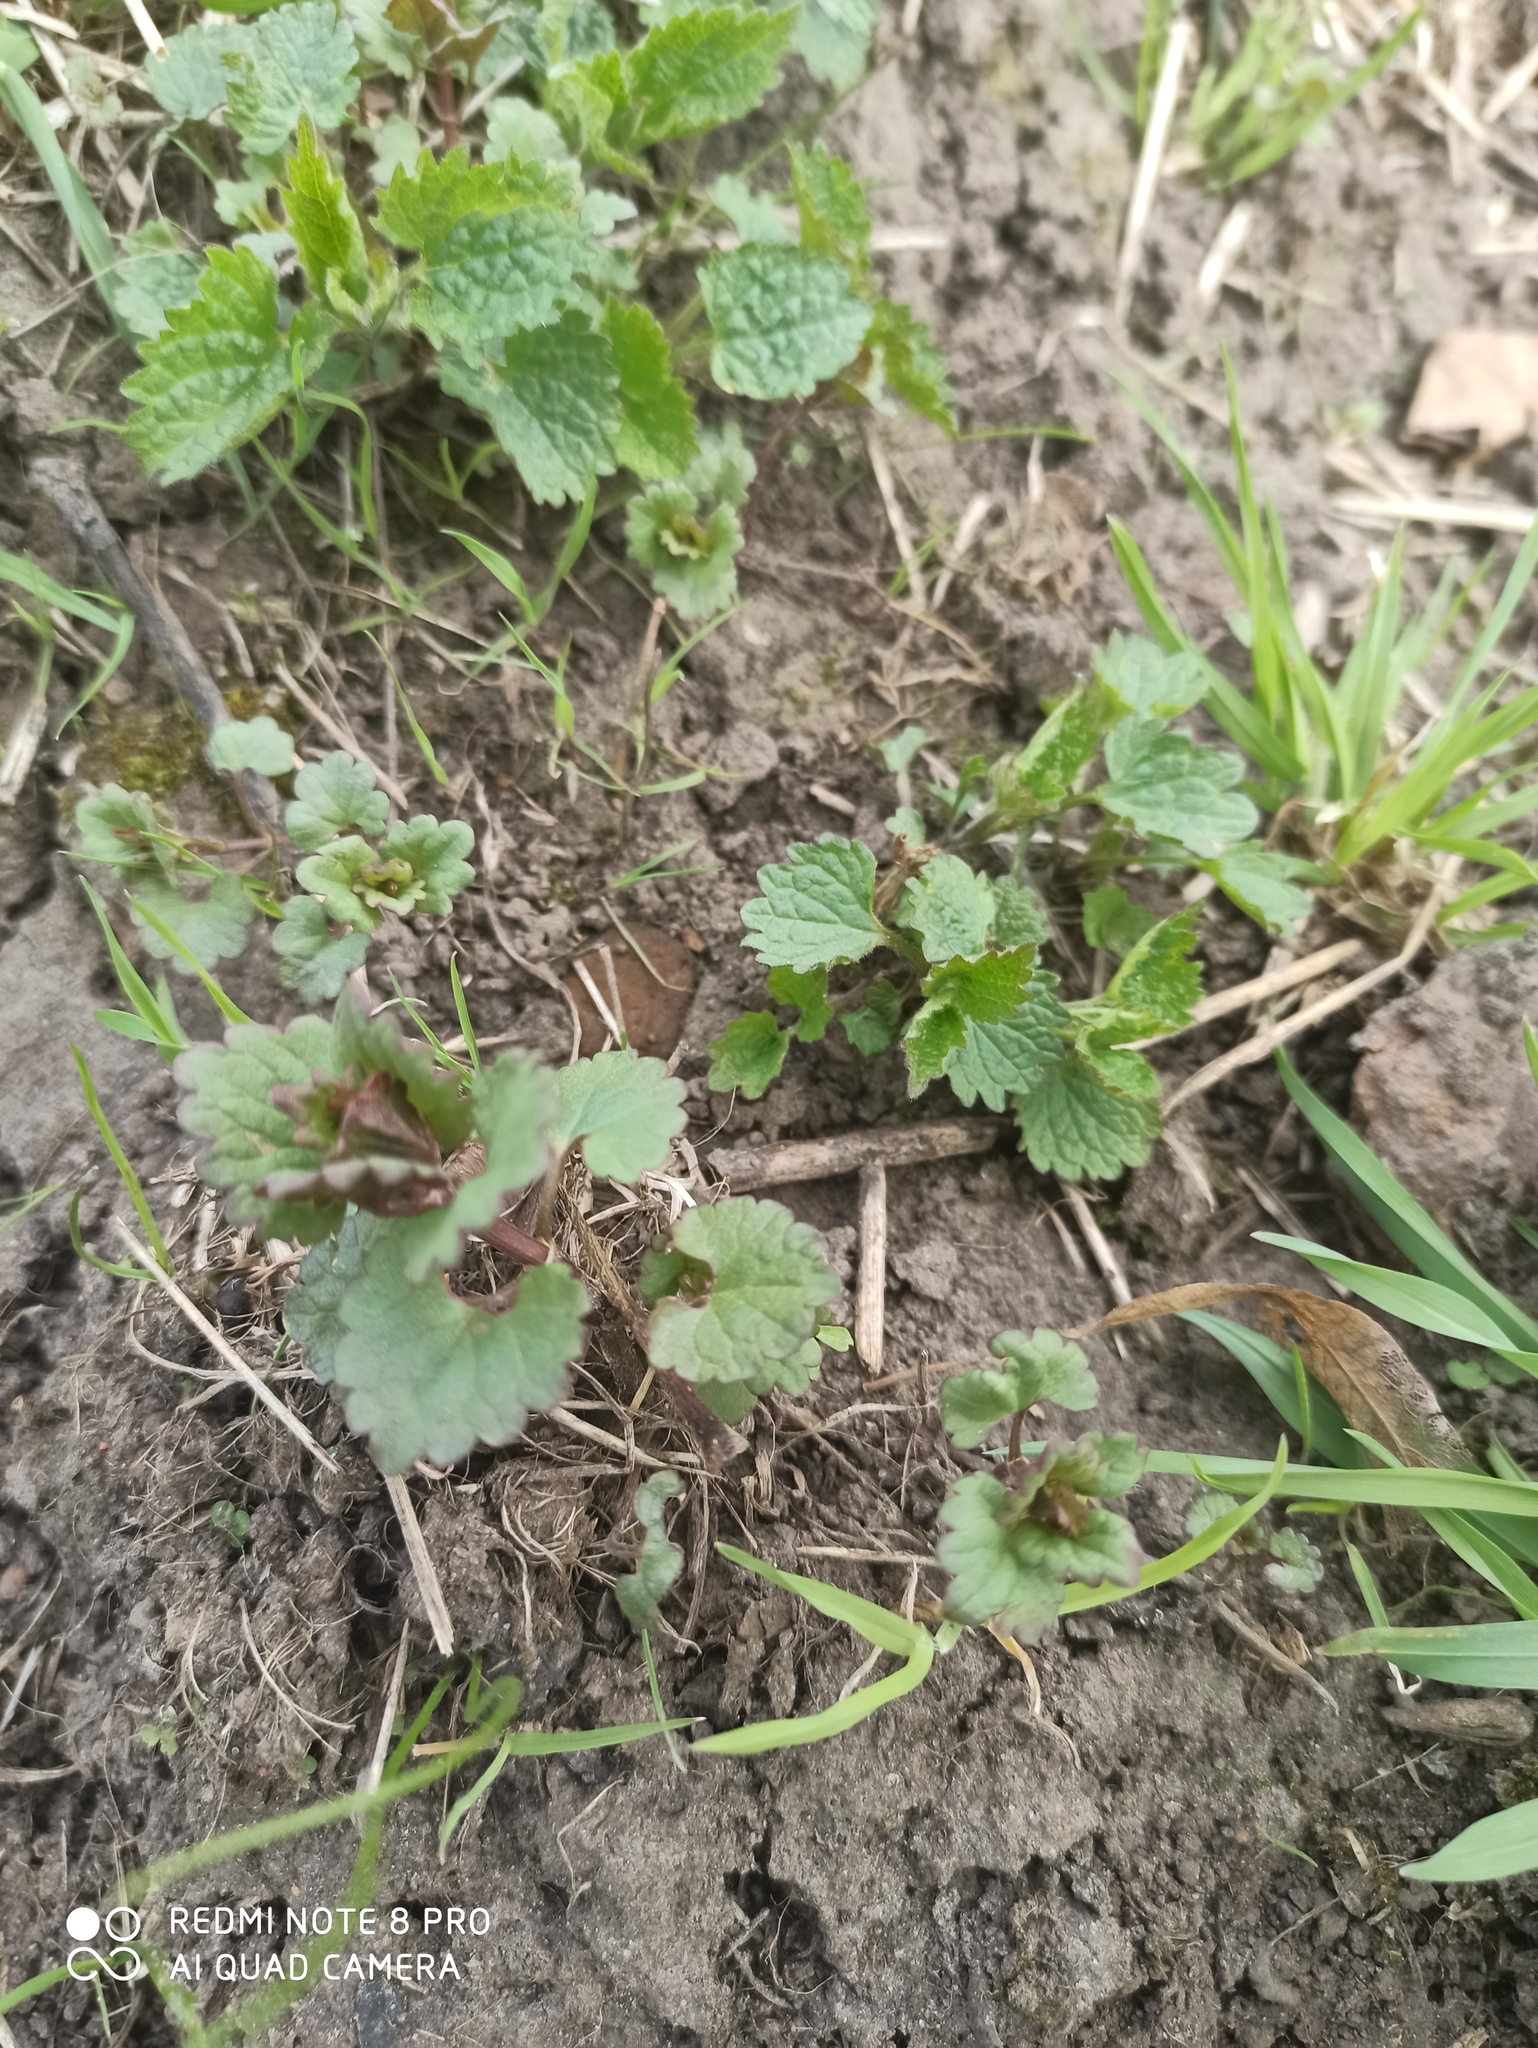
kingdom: Plantae
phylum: Tracheophyta
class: Magnoliopsida
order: Lamiales
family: Lamiaceae
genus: Glechoma
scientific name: Glechoma hederacea
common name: Ground ivy
